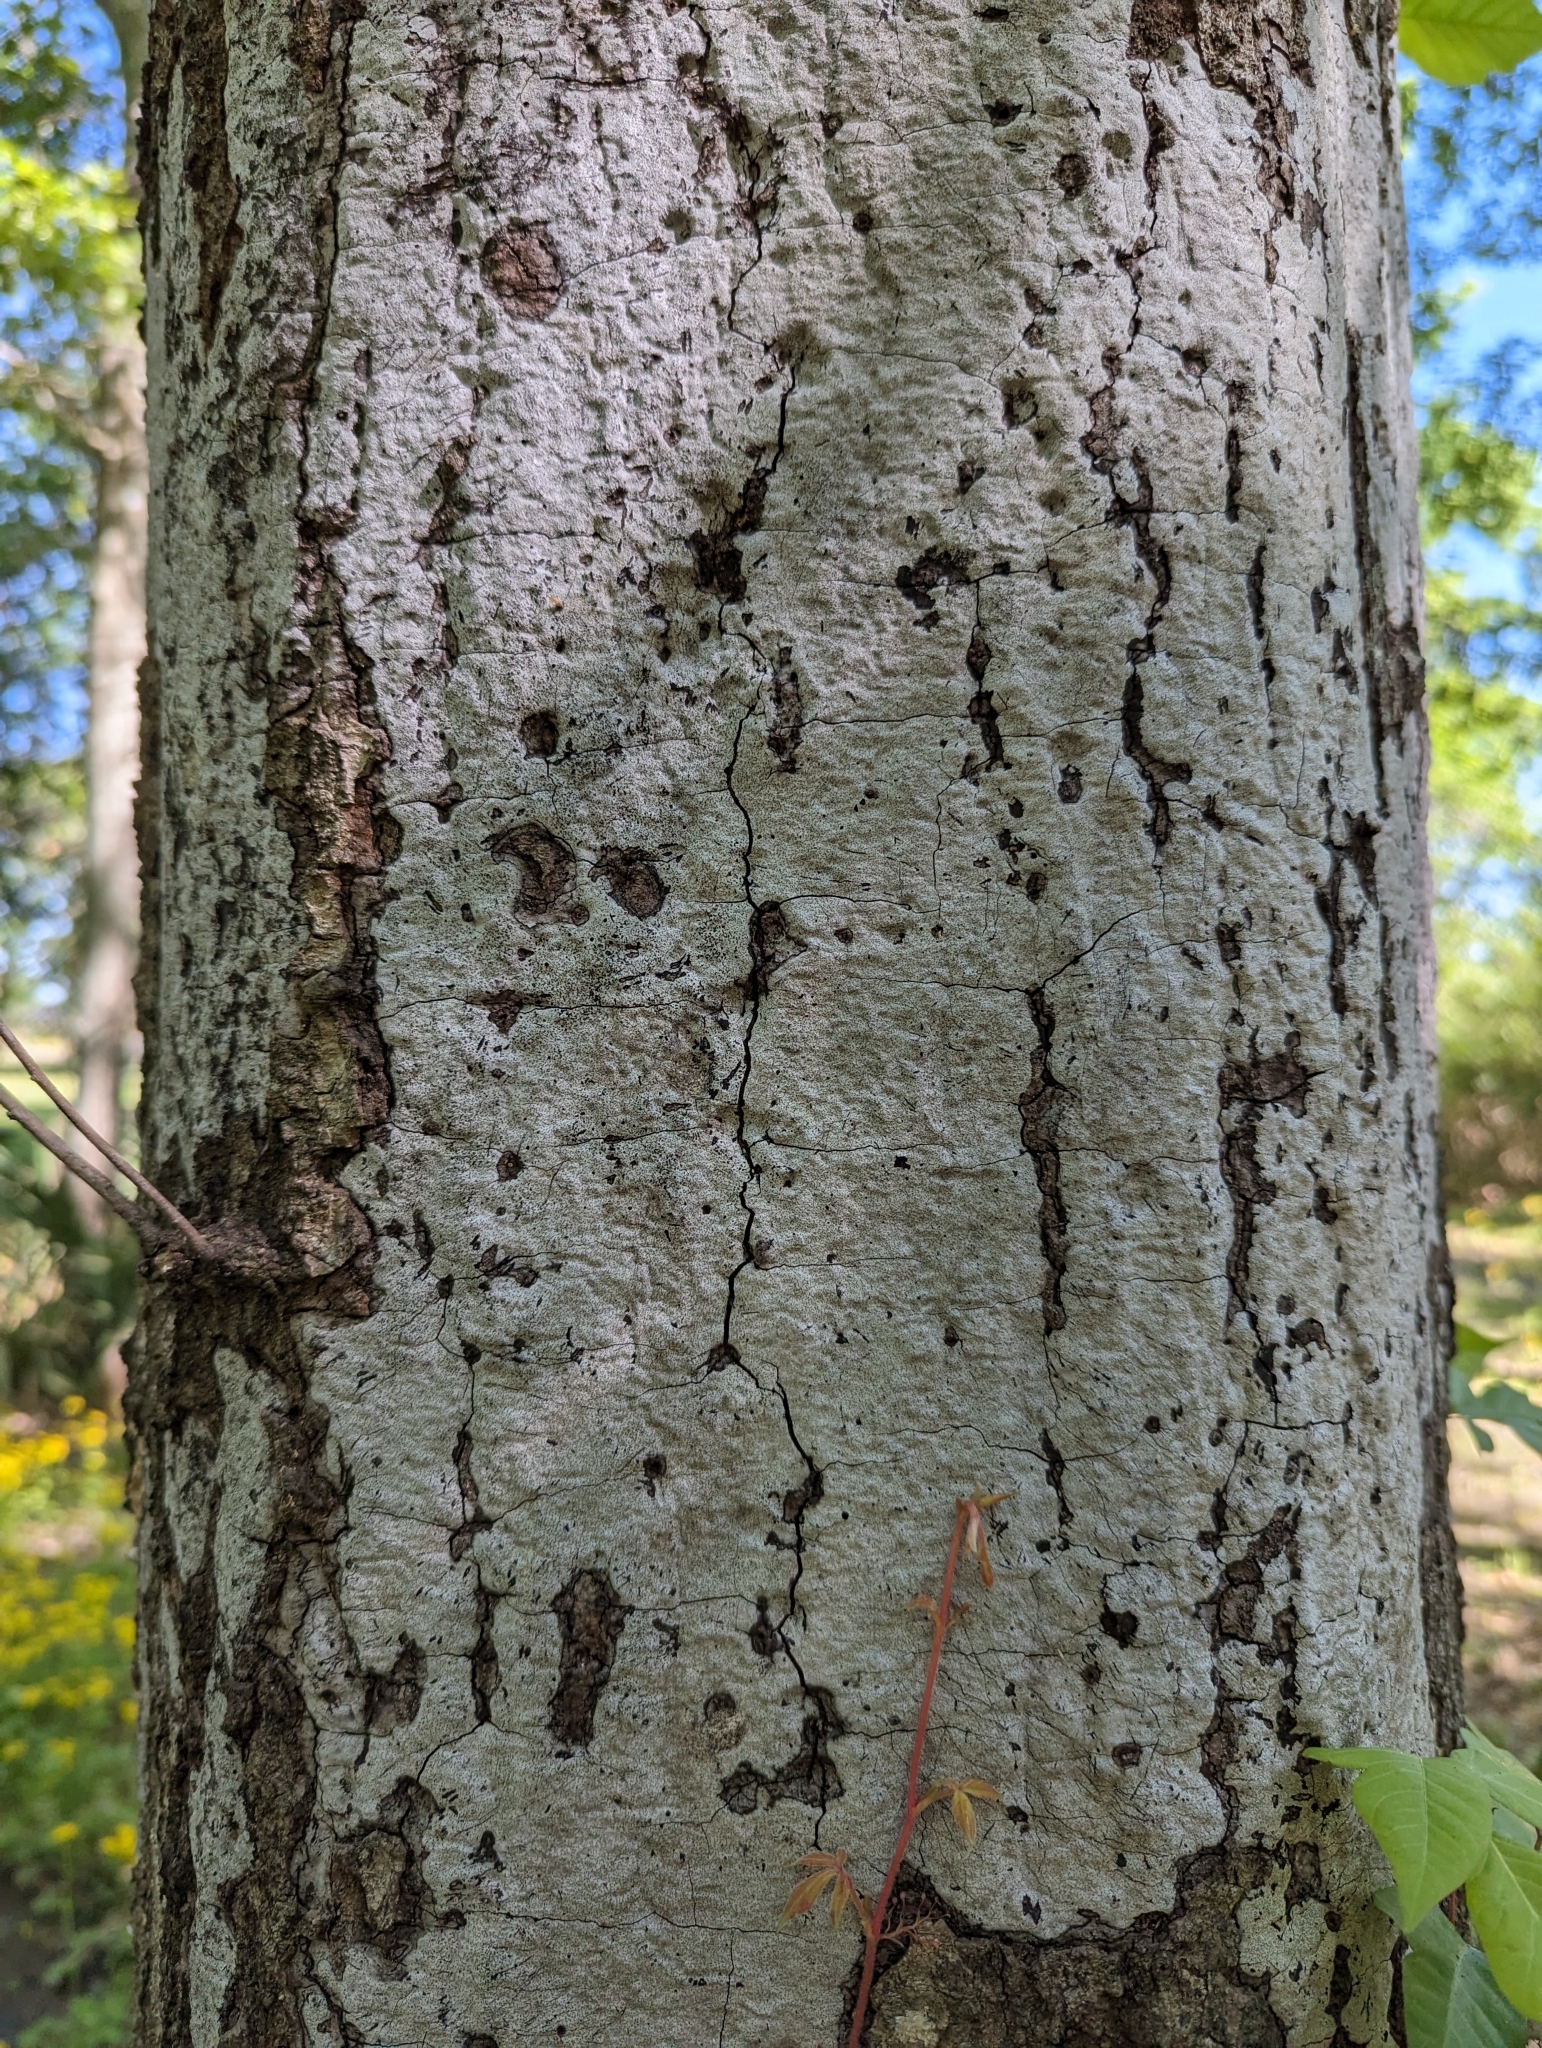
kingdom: Fungi
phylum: Ascomycota
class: Sordariomycetes
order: Xylariales
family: Graphostromataceae
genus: Biscogniauxia
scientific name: Biscogniauxia atropunctata
